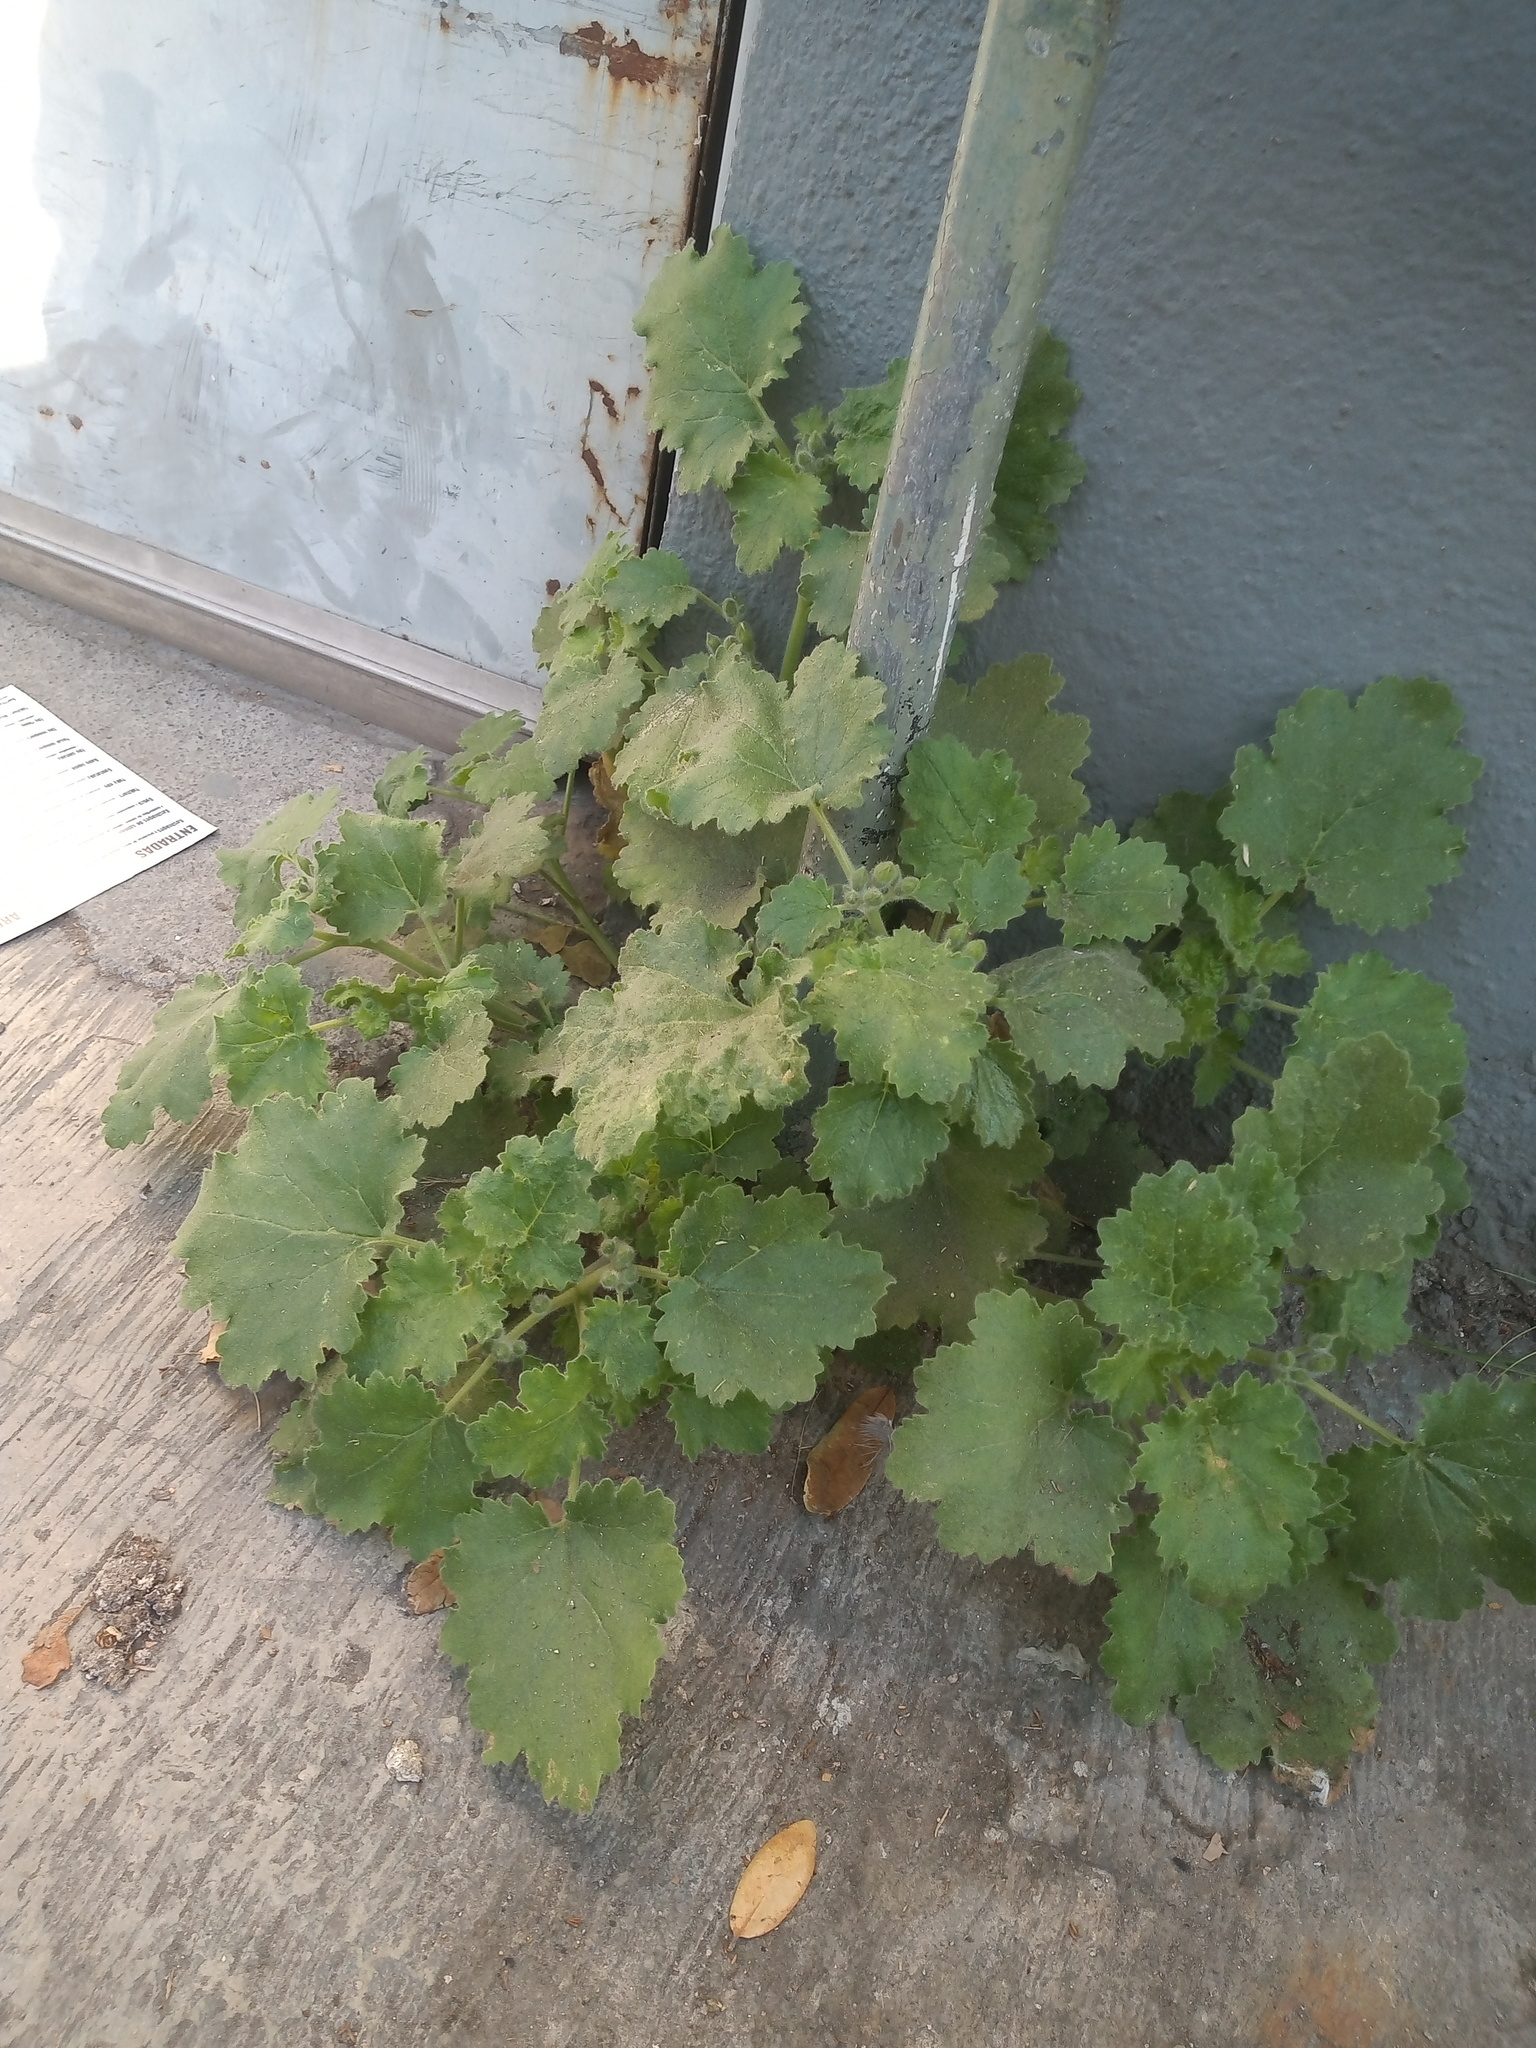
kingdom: Plantae
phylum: Tracheophyta
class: Magnoliopsida
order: Cornales
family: Loasaceae
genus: Eucnide
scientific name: Eucnide lobata
